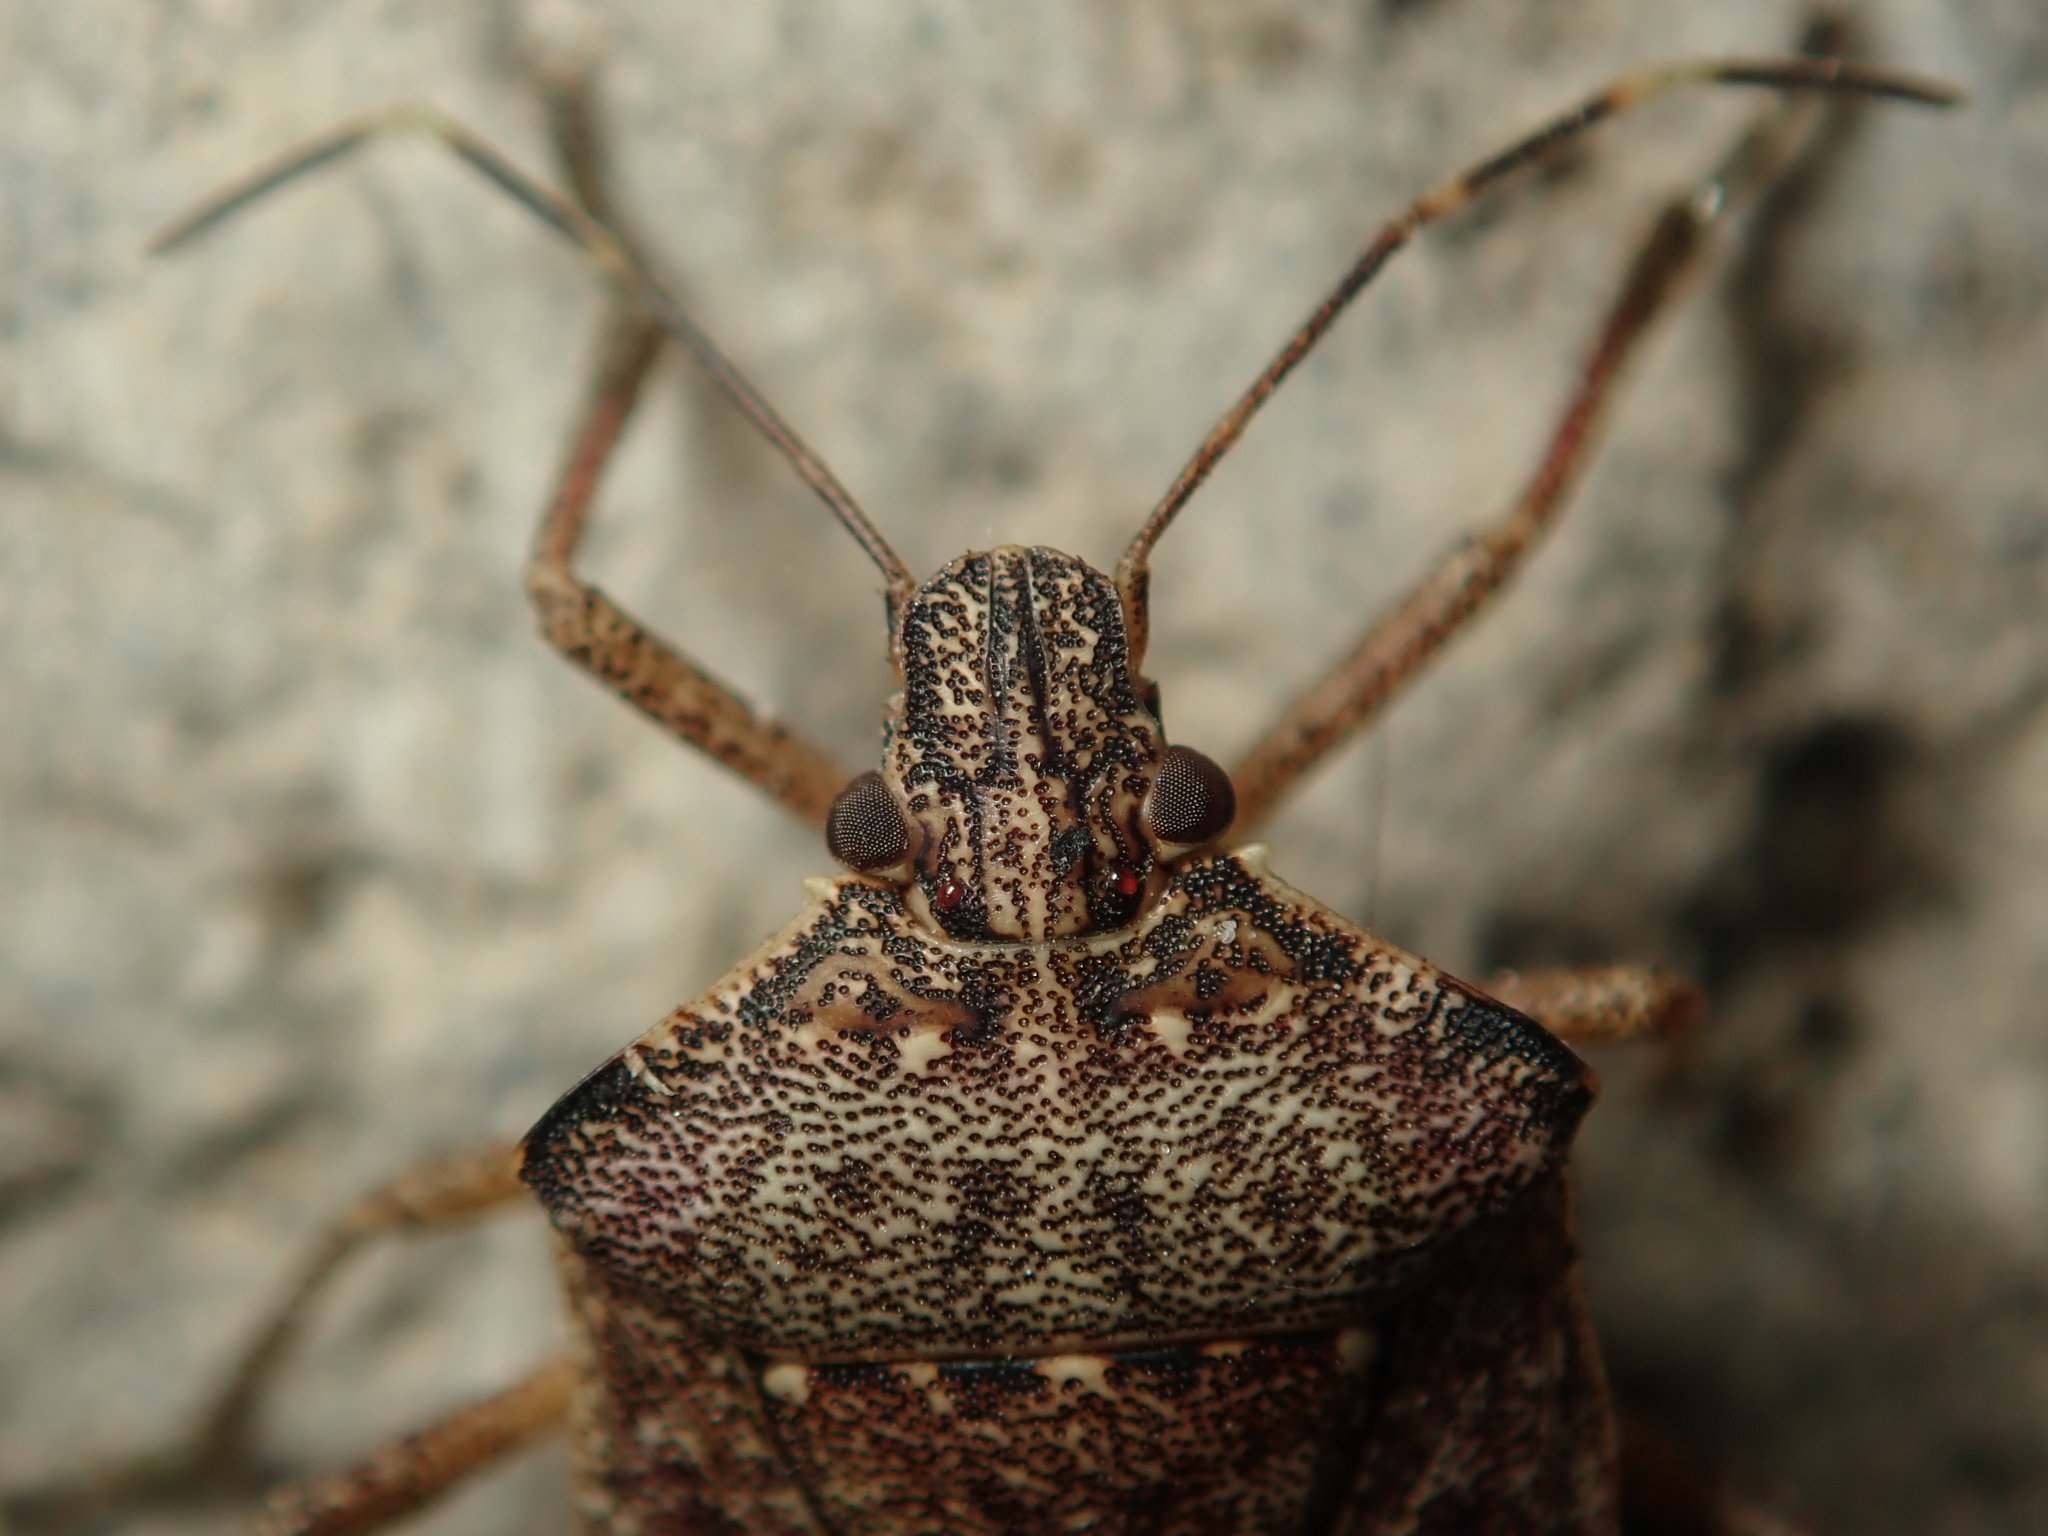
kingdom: Animalia
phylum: Arthropoda
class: Insecta
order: Hemiptera
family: Pentatomidae
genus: Halyomorpha
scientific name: Halyomorpha halys
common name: Brown marmorated stink bug
